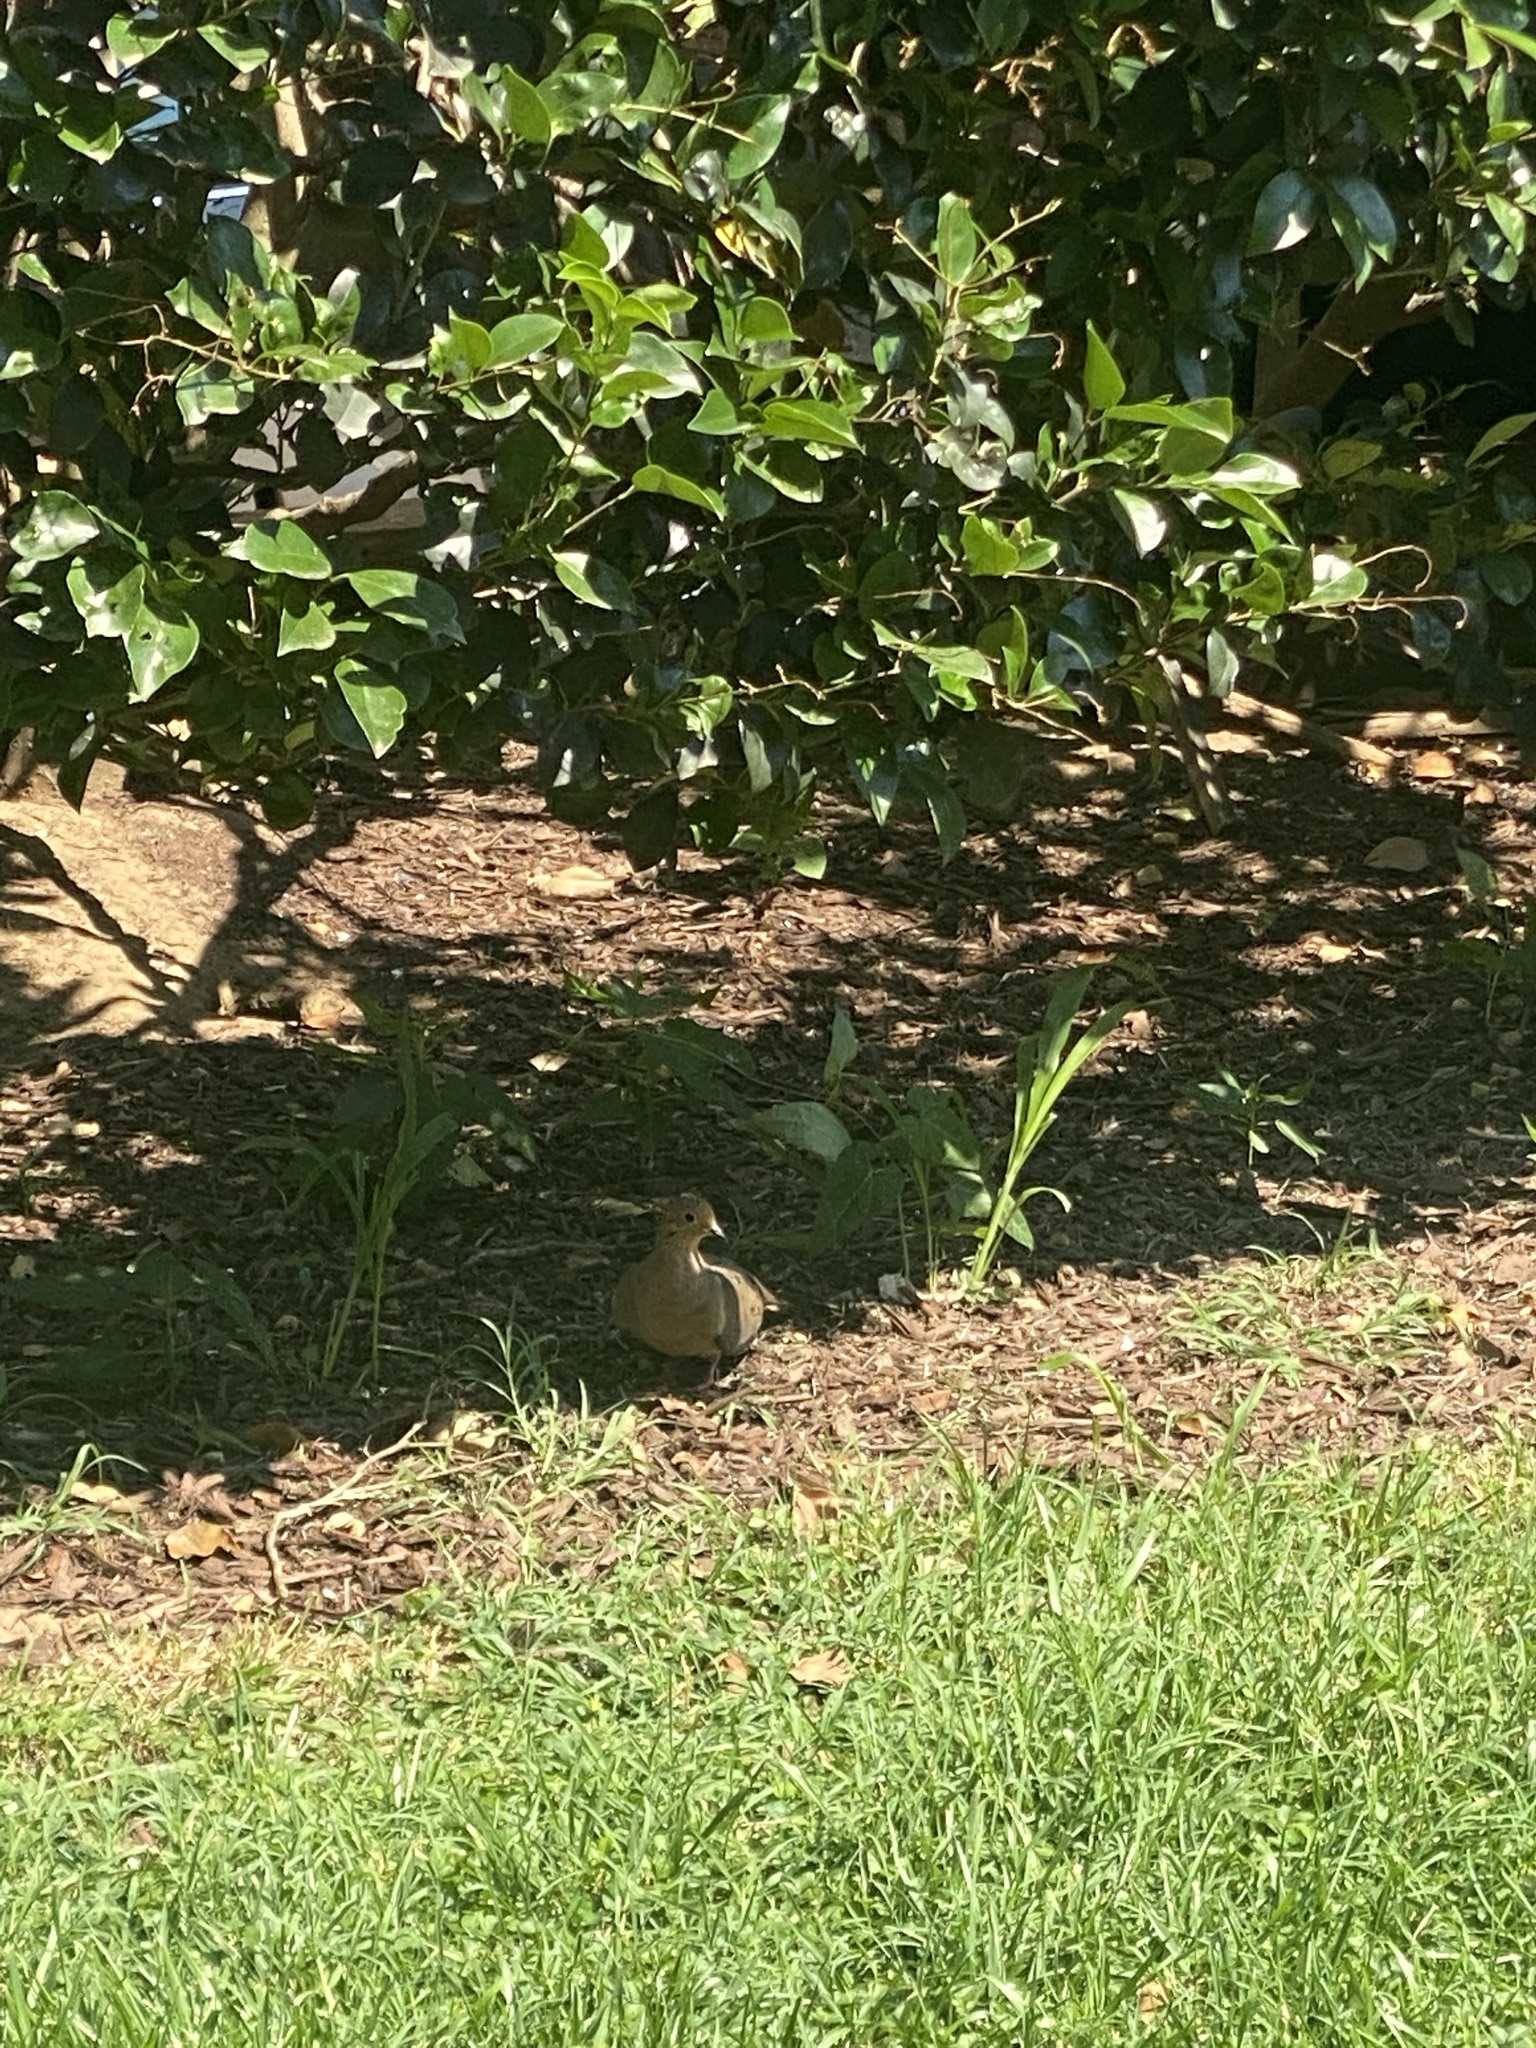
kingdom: Animalia
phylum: Chordata
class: Aves
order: Columbiformes
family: Columbidae
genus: Zenaida
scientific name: Zenaida macroura
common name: Mourning dove
